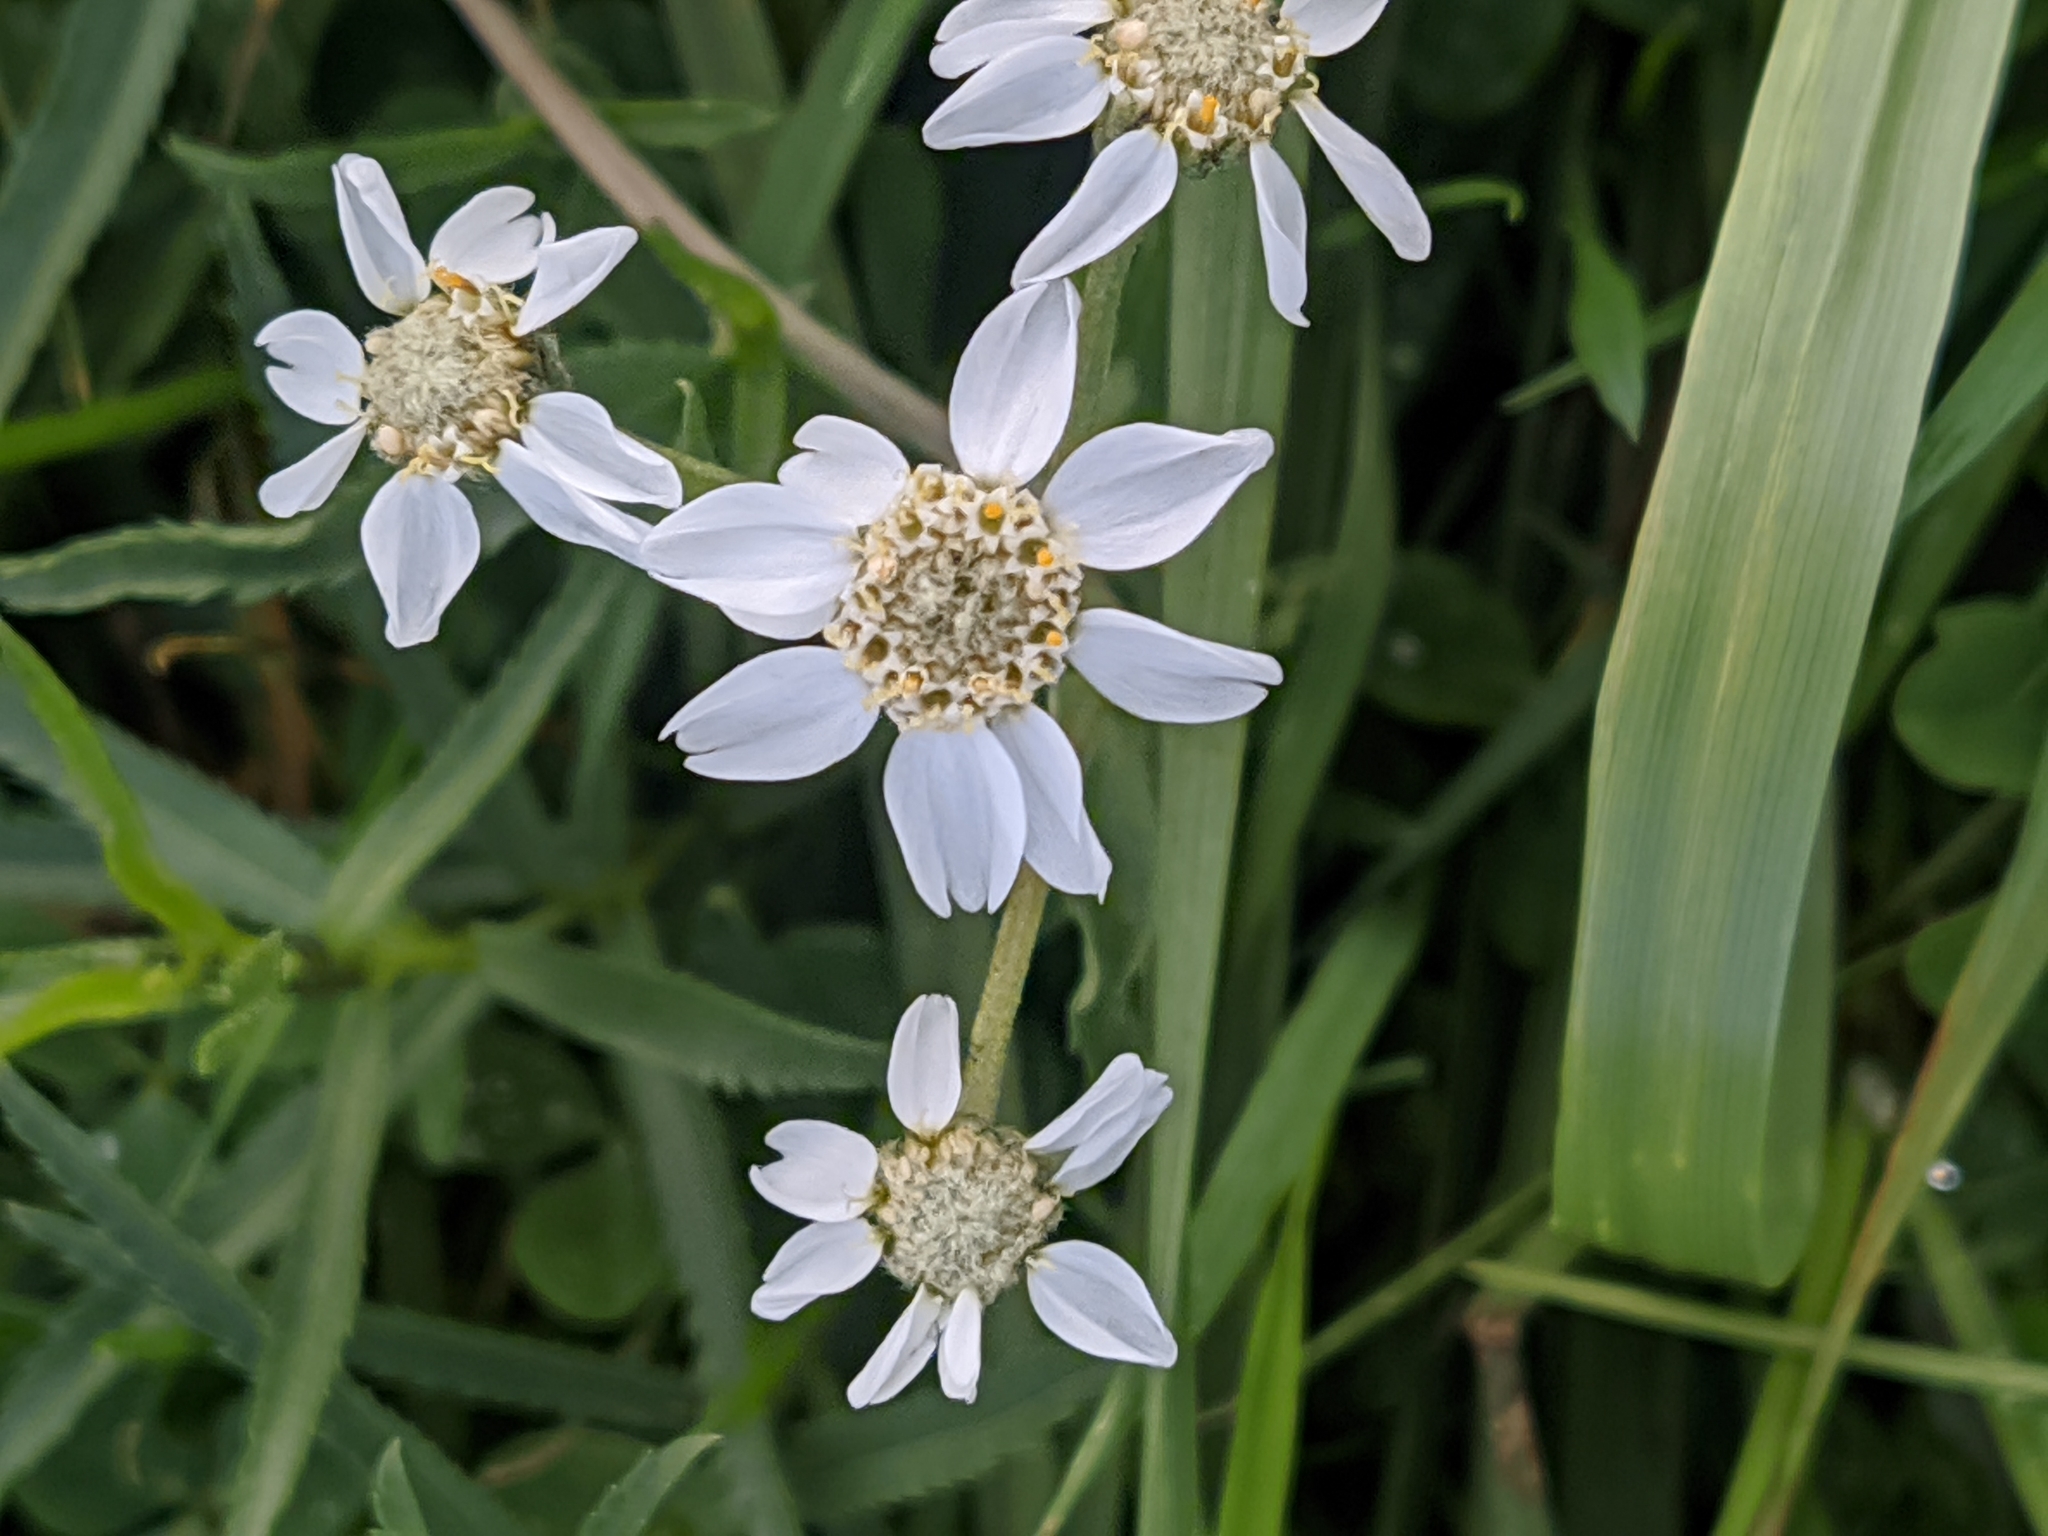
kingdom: Plantae
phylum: Tracheophyta
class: Magnoliopsida
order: Asterales
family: Asteraceae
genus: Achillea
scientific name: Achillea ptarmica
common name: Sneezeweed
